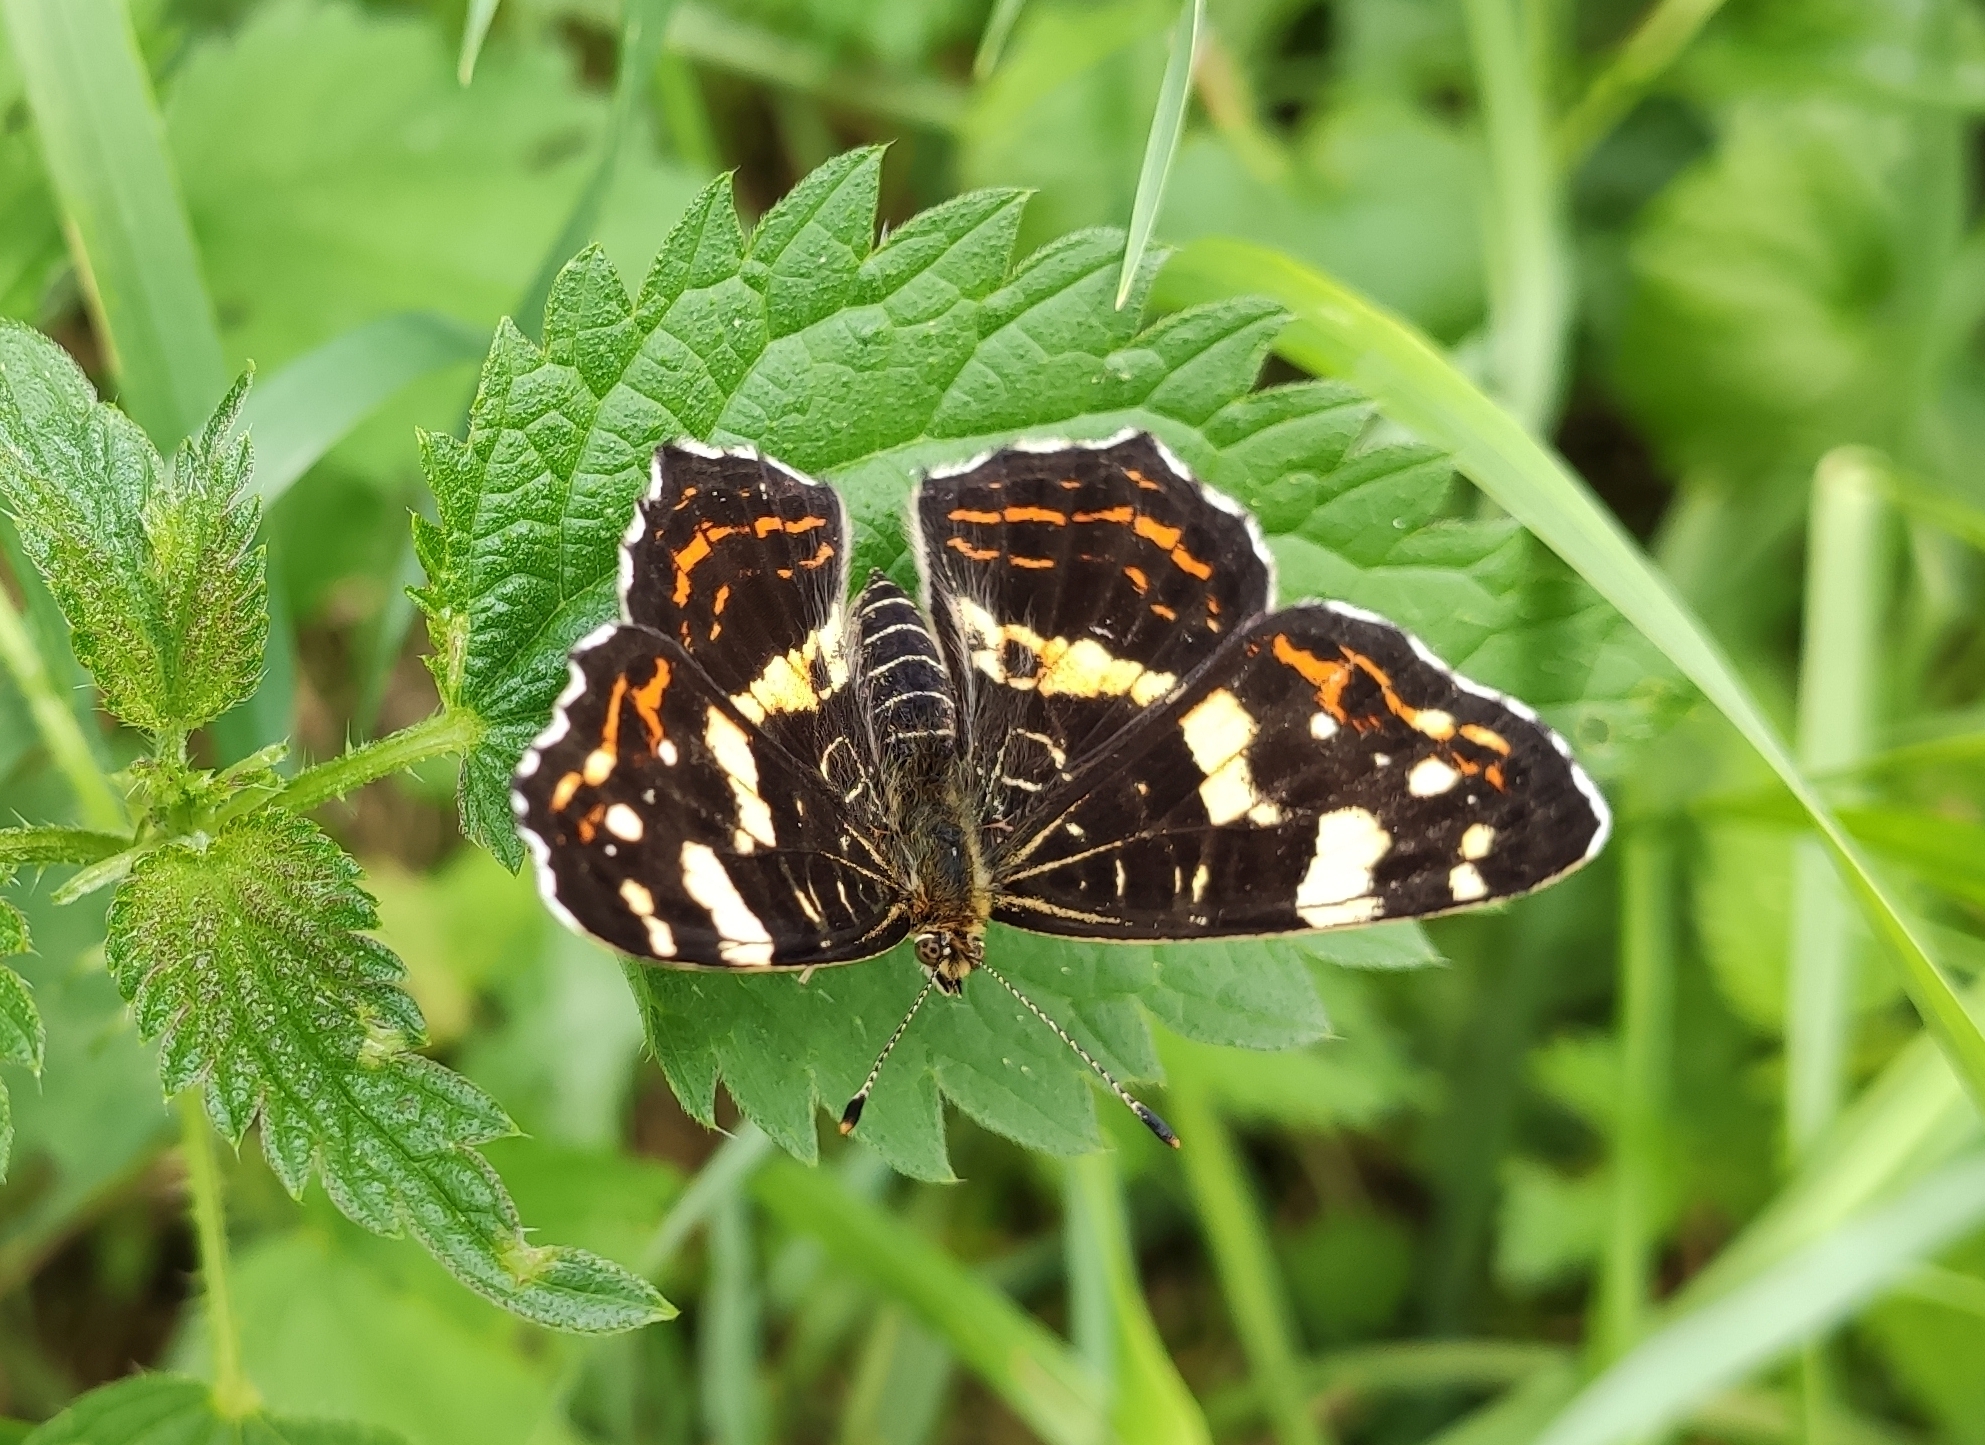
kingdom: Animalia
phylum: Arthropoda
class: Insecta
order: Lepidoptera
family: Nymphalidae
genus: Araschnia
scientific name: Araschnia levana
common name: Map butterfly
